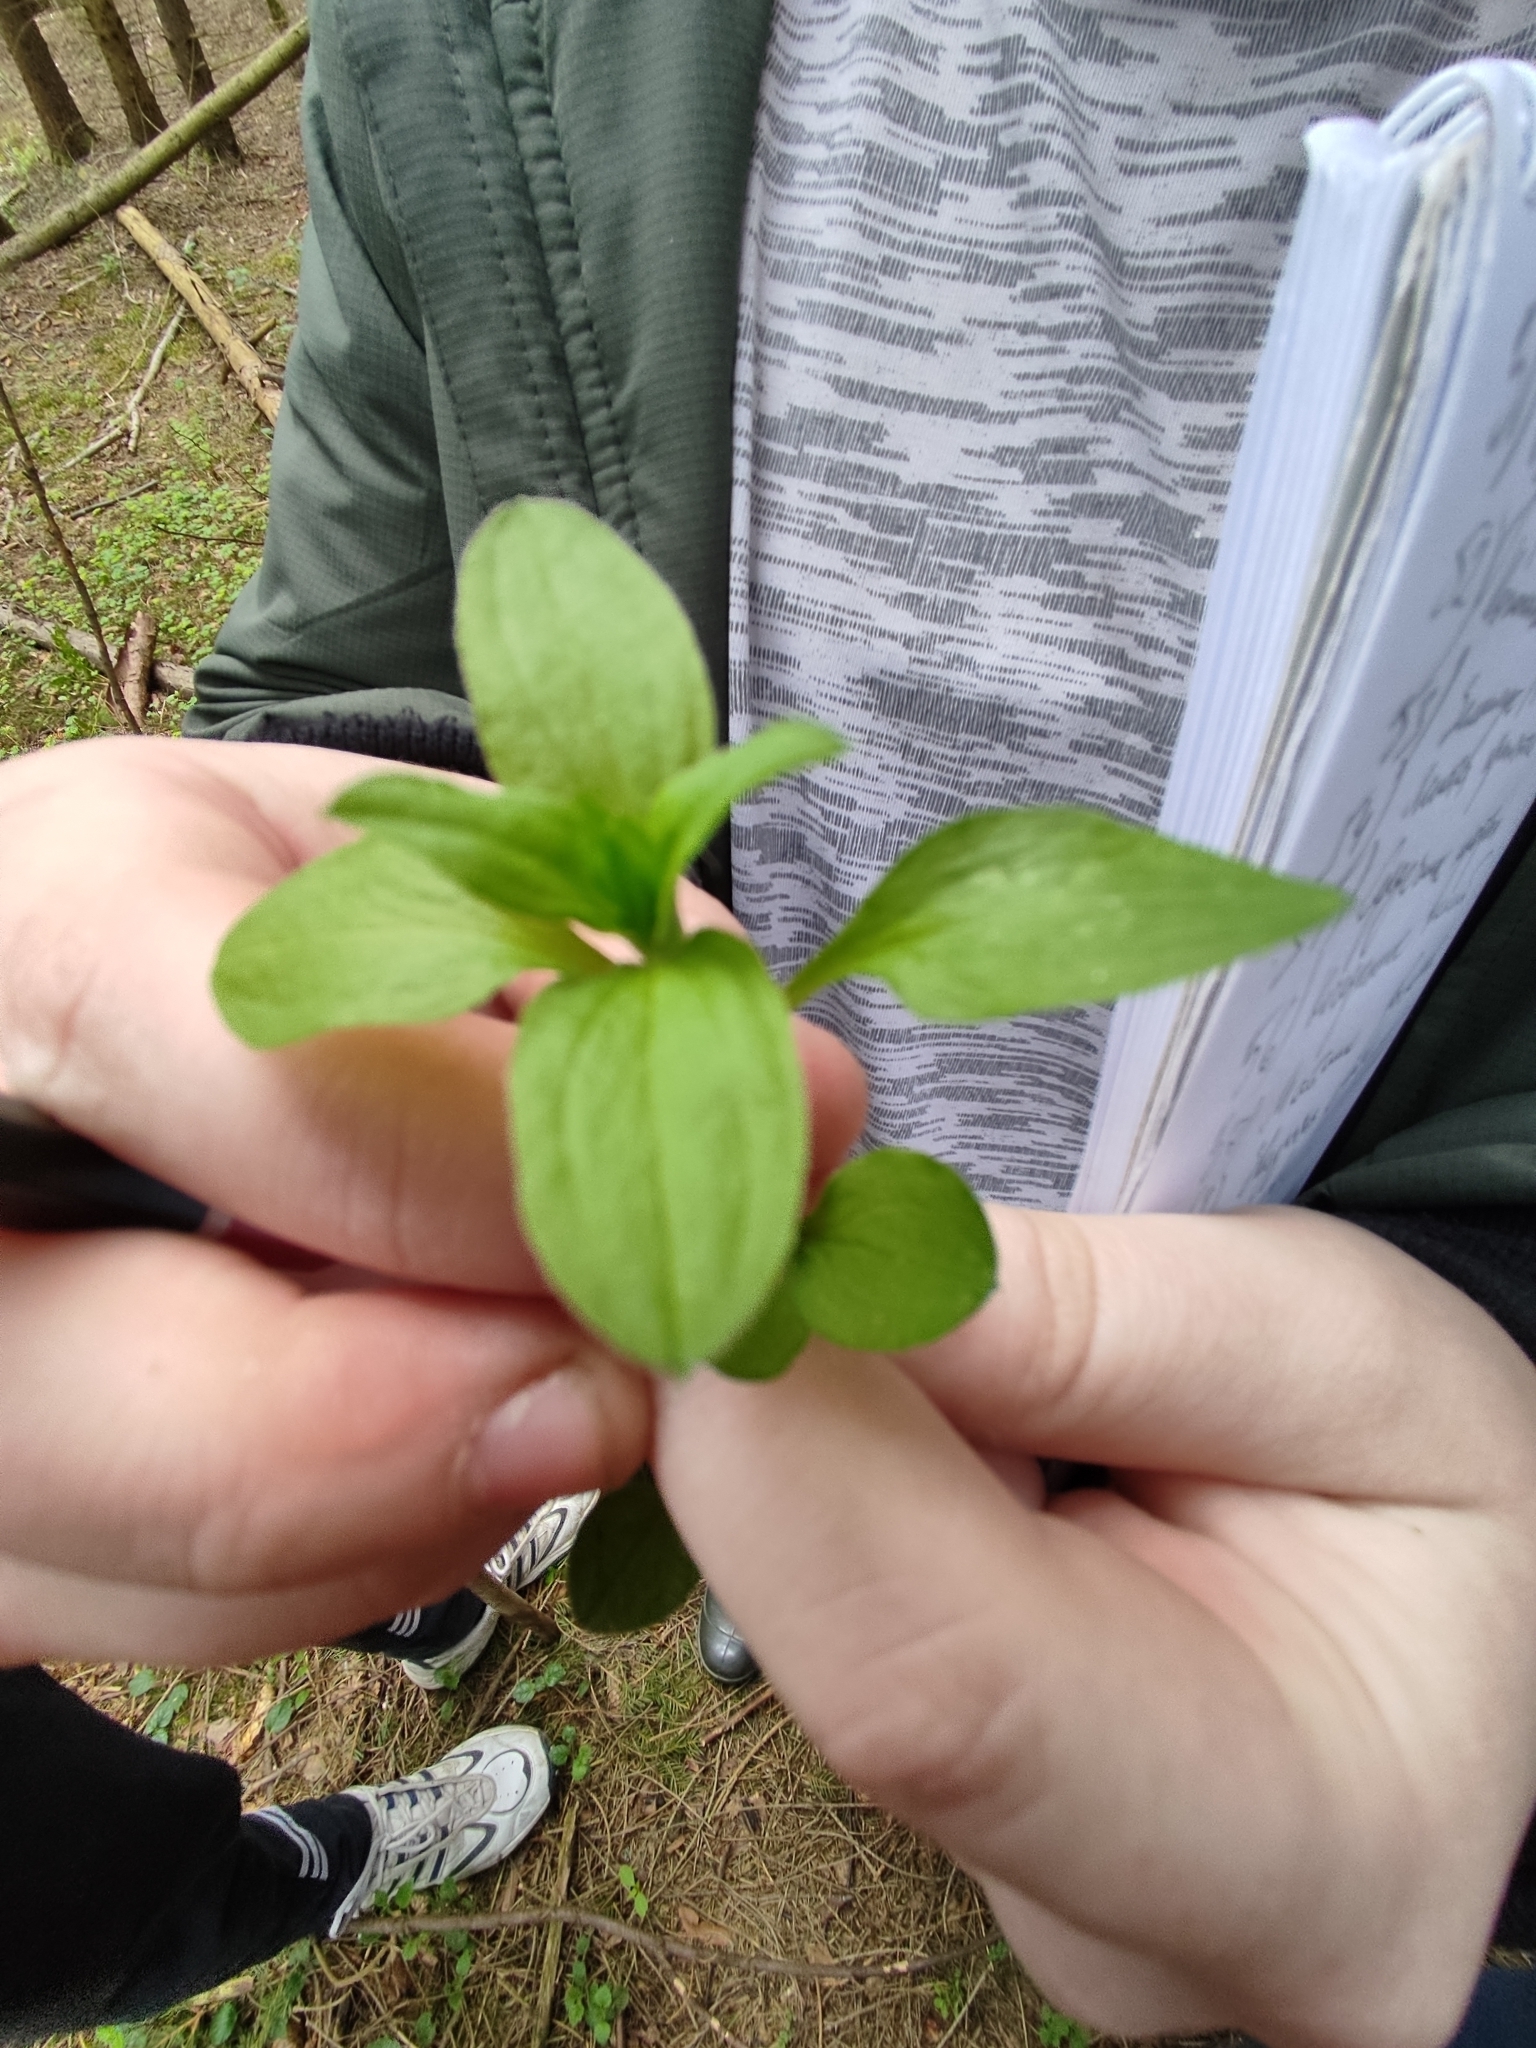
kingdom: Plantae
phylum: Tracheophyta
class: Magnoliopsida
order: Caryophyllales
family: Caryophyllaceae
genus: Moehringia
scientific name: Moehringia trinervia
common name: Three-nerved sandwort
